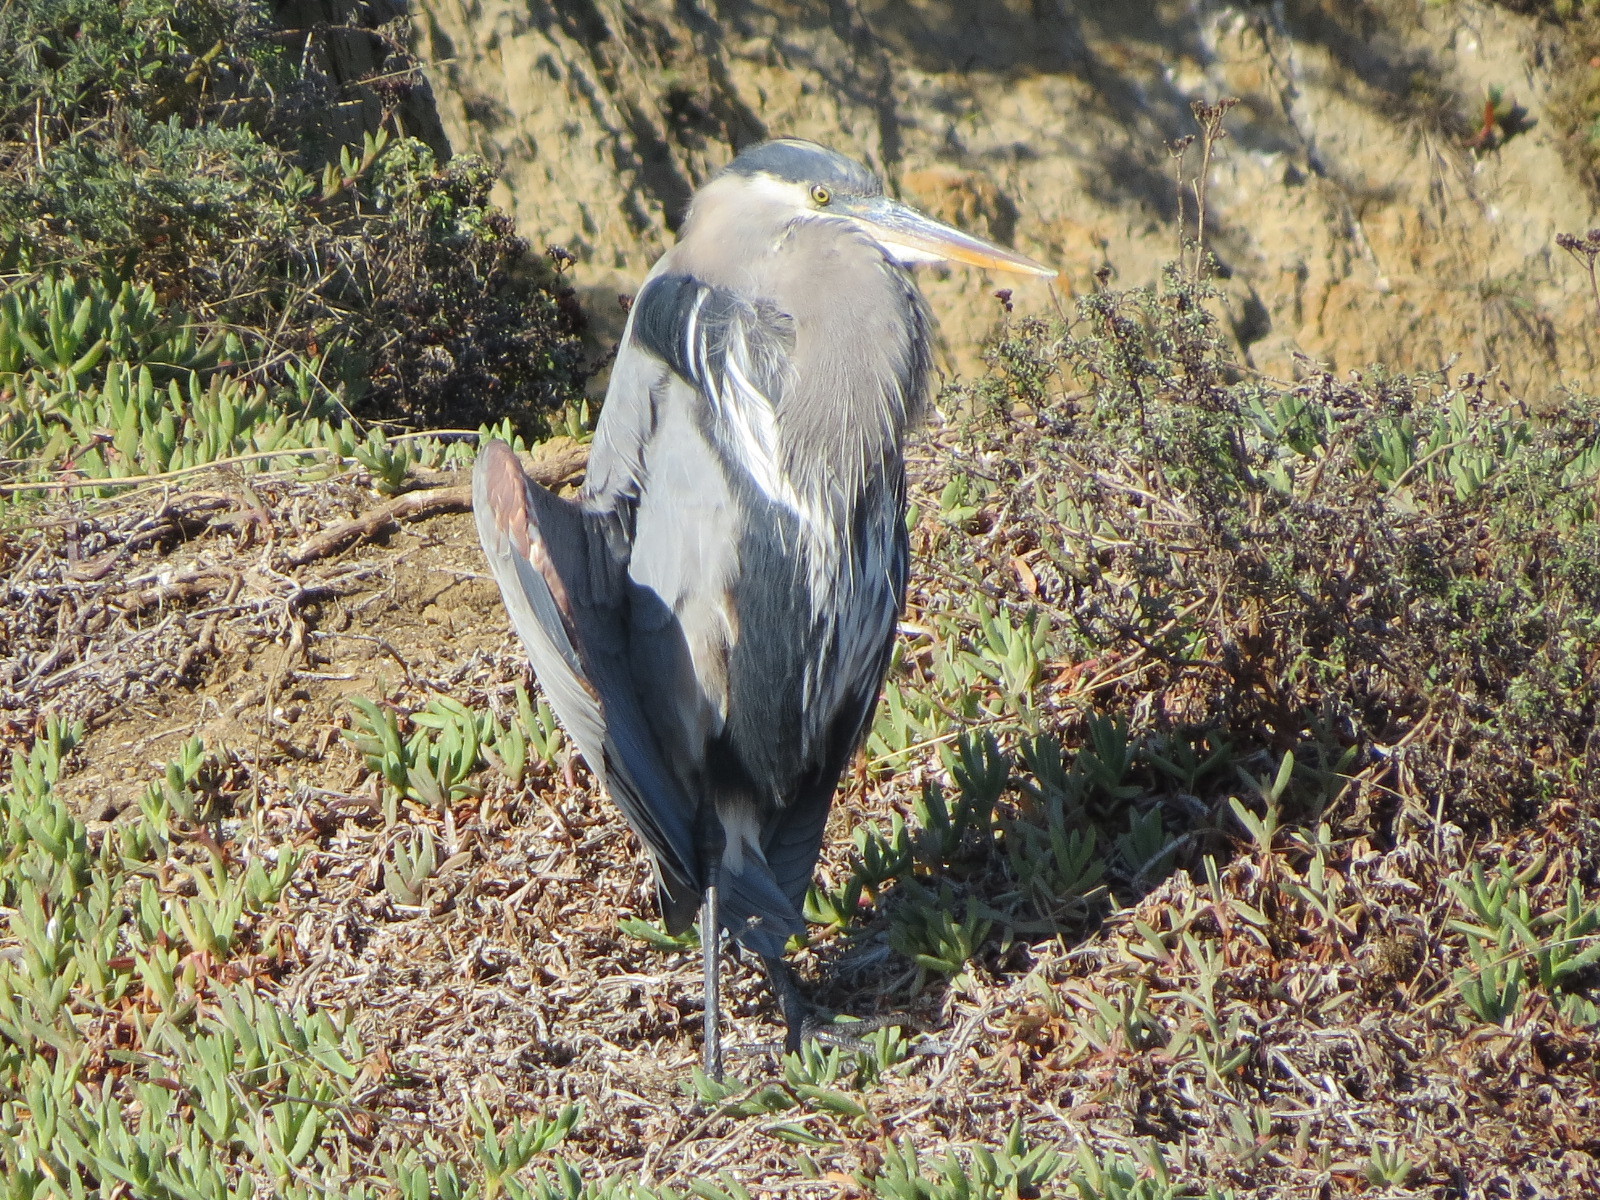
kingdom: Animalia
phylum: Chordata
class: Aves
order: Pelecaniformes
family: Ardeidae
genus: Ardea
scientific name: Ardea herodias
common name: Great blue heron
